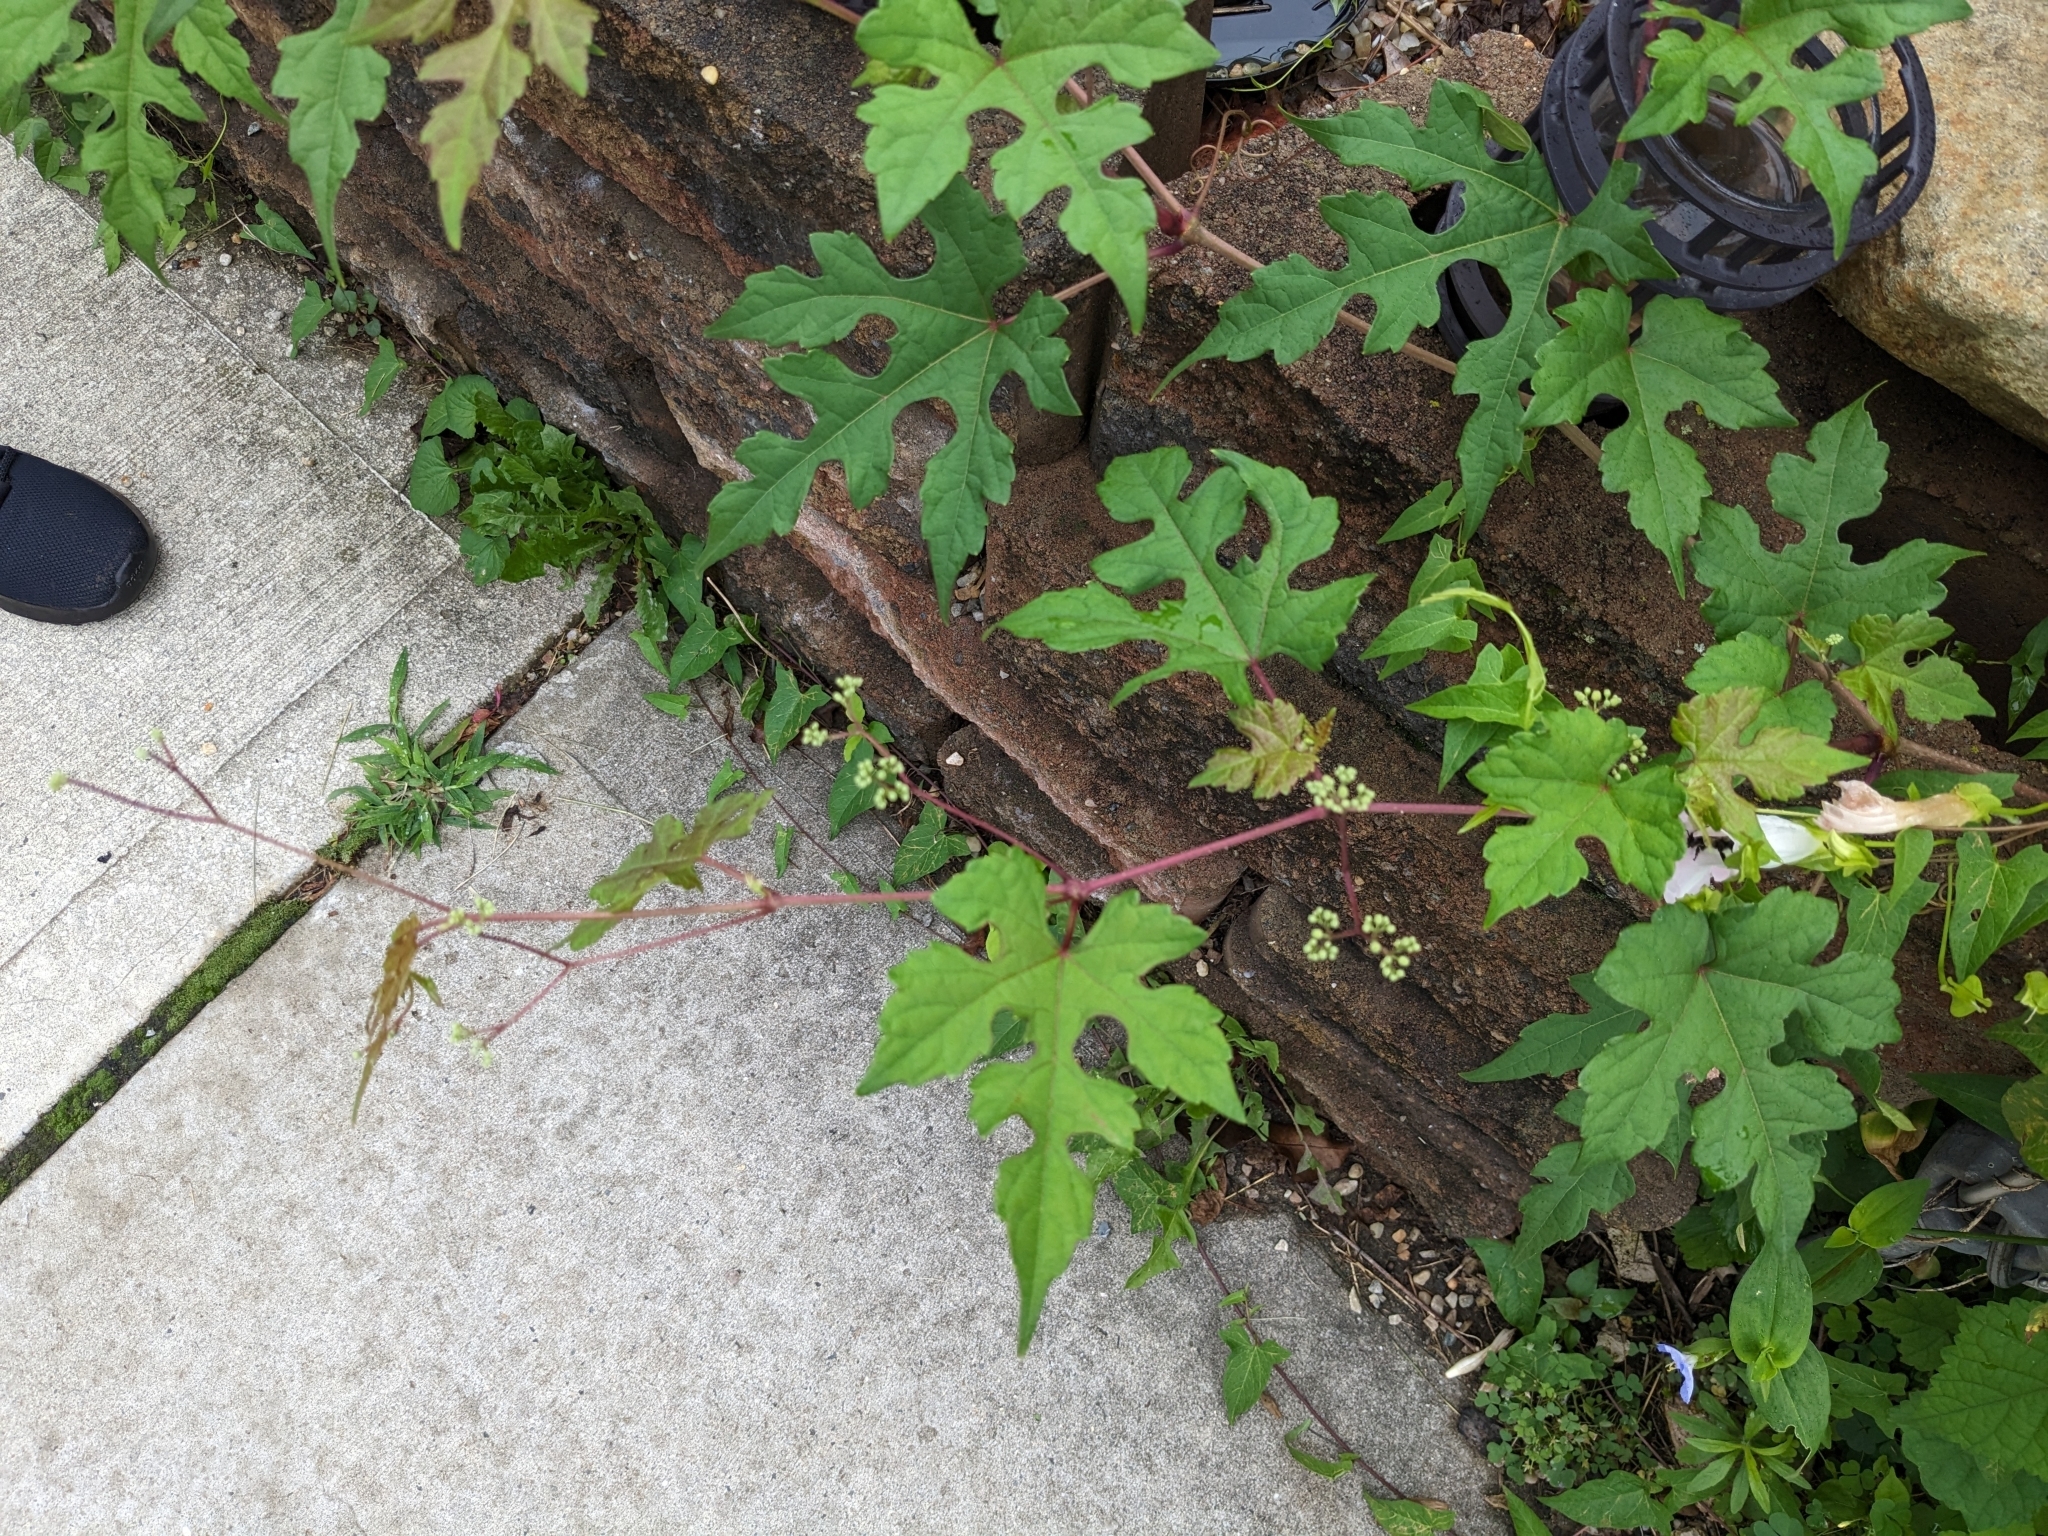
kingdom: Plantae
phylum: Tracheophyta
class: Magnoliopsida
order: Vitales
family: Vitaceae
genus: Ampelopsis
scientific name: Ampelopsis glandulosa
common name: Amur peppervine
